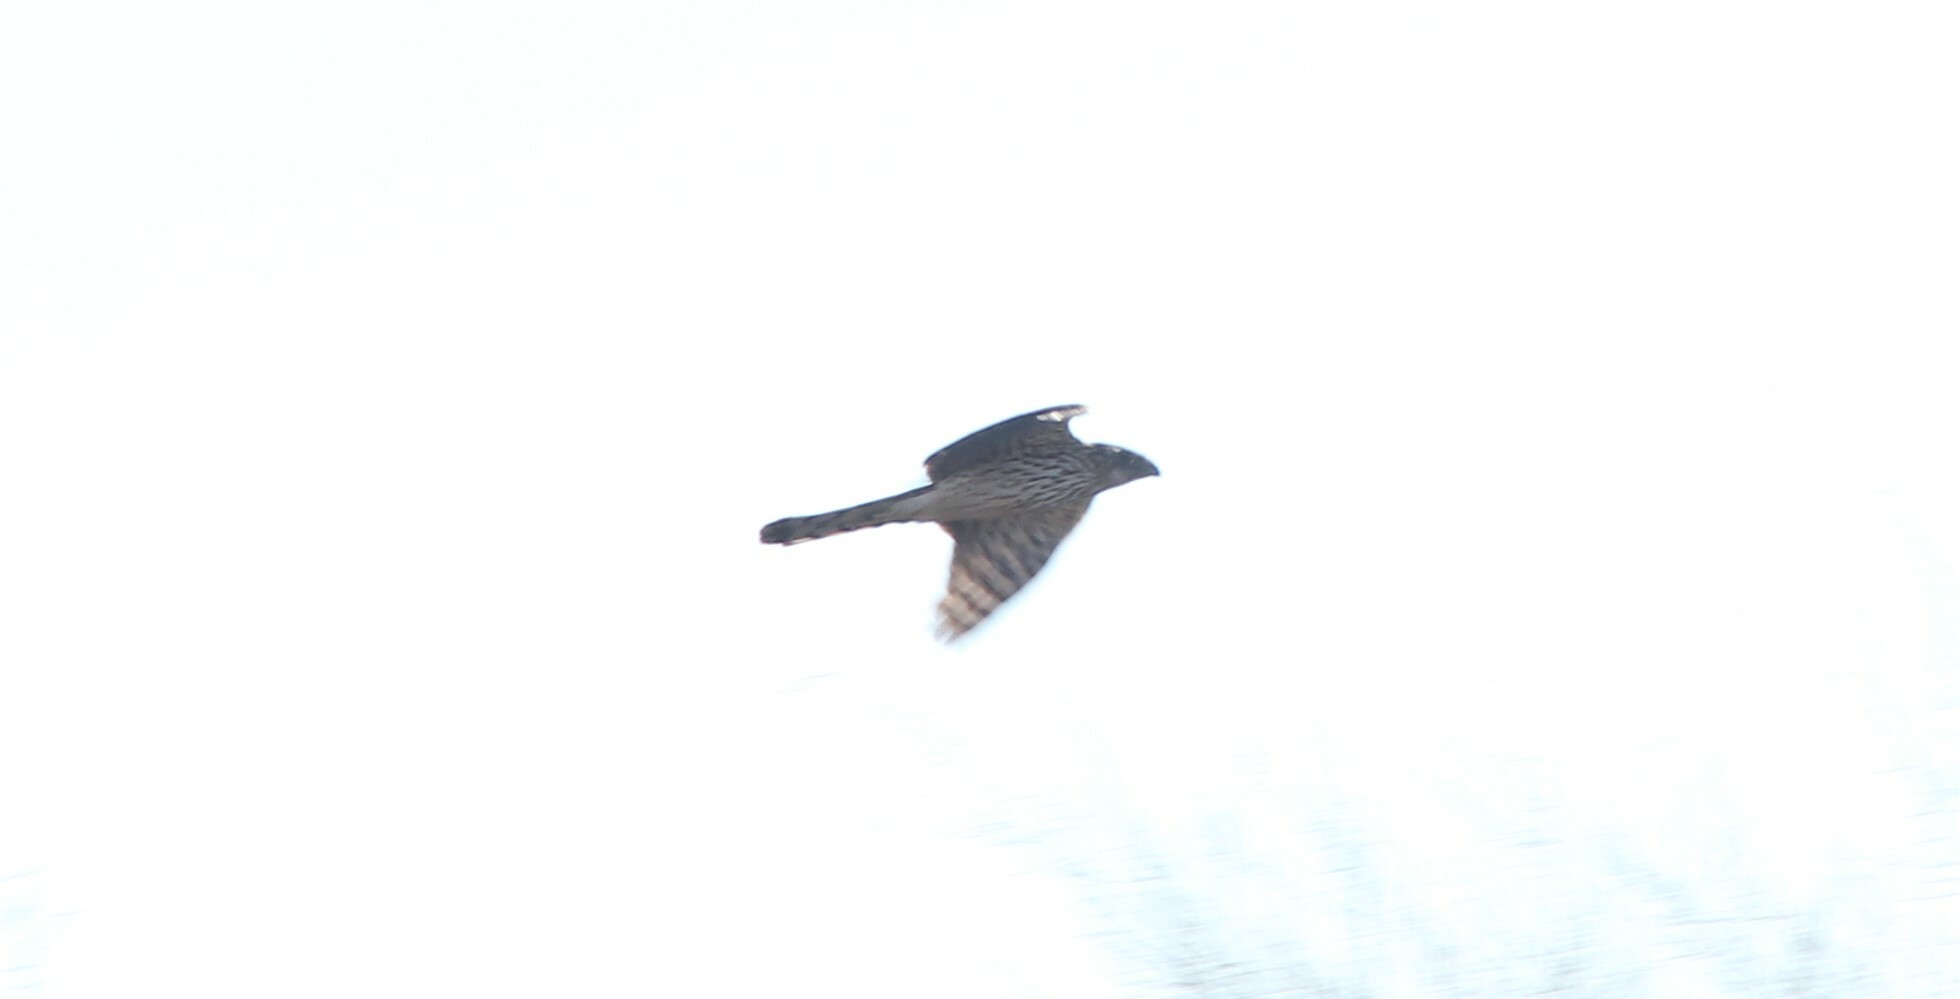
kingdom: Animalia
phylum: Chordata
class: Aves
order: Accipitriformes
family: Accipitridae
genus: Accipiter
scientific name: Accipiter cooperii
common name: Cooper's hawk
